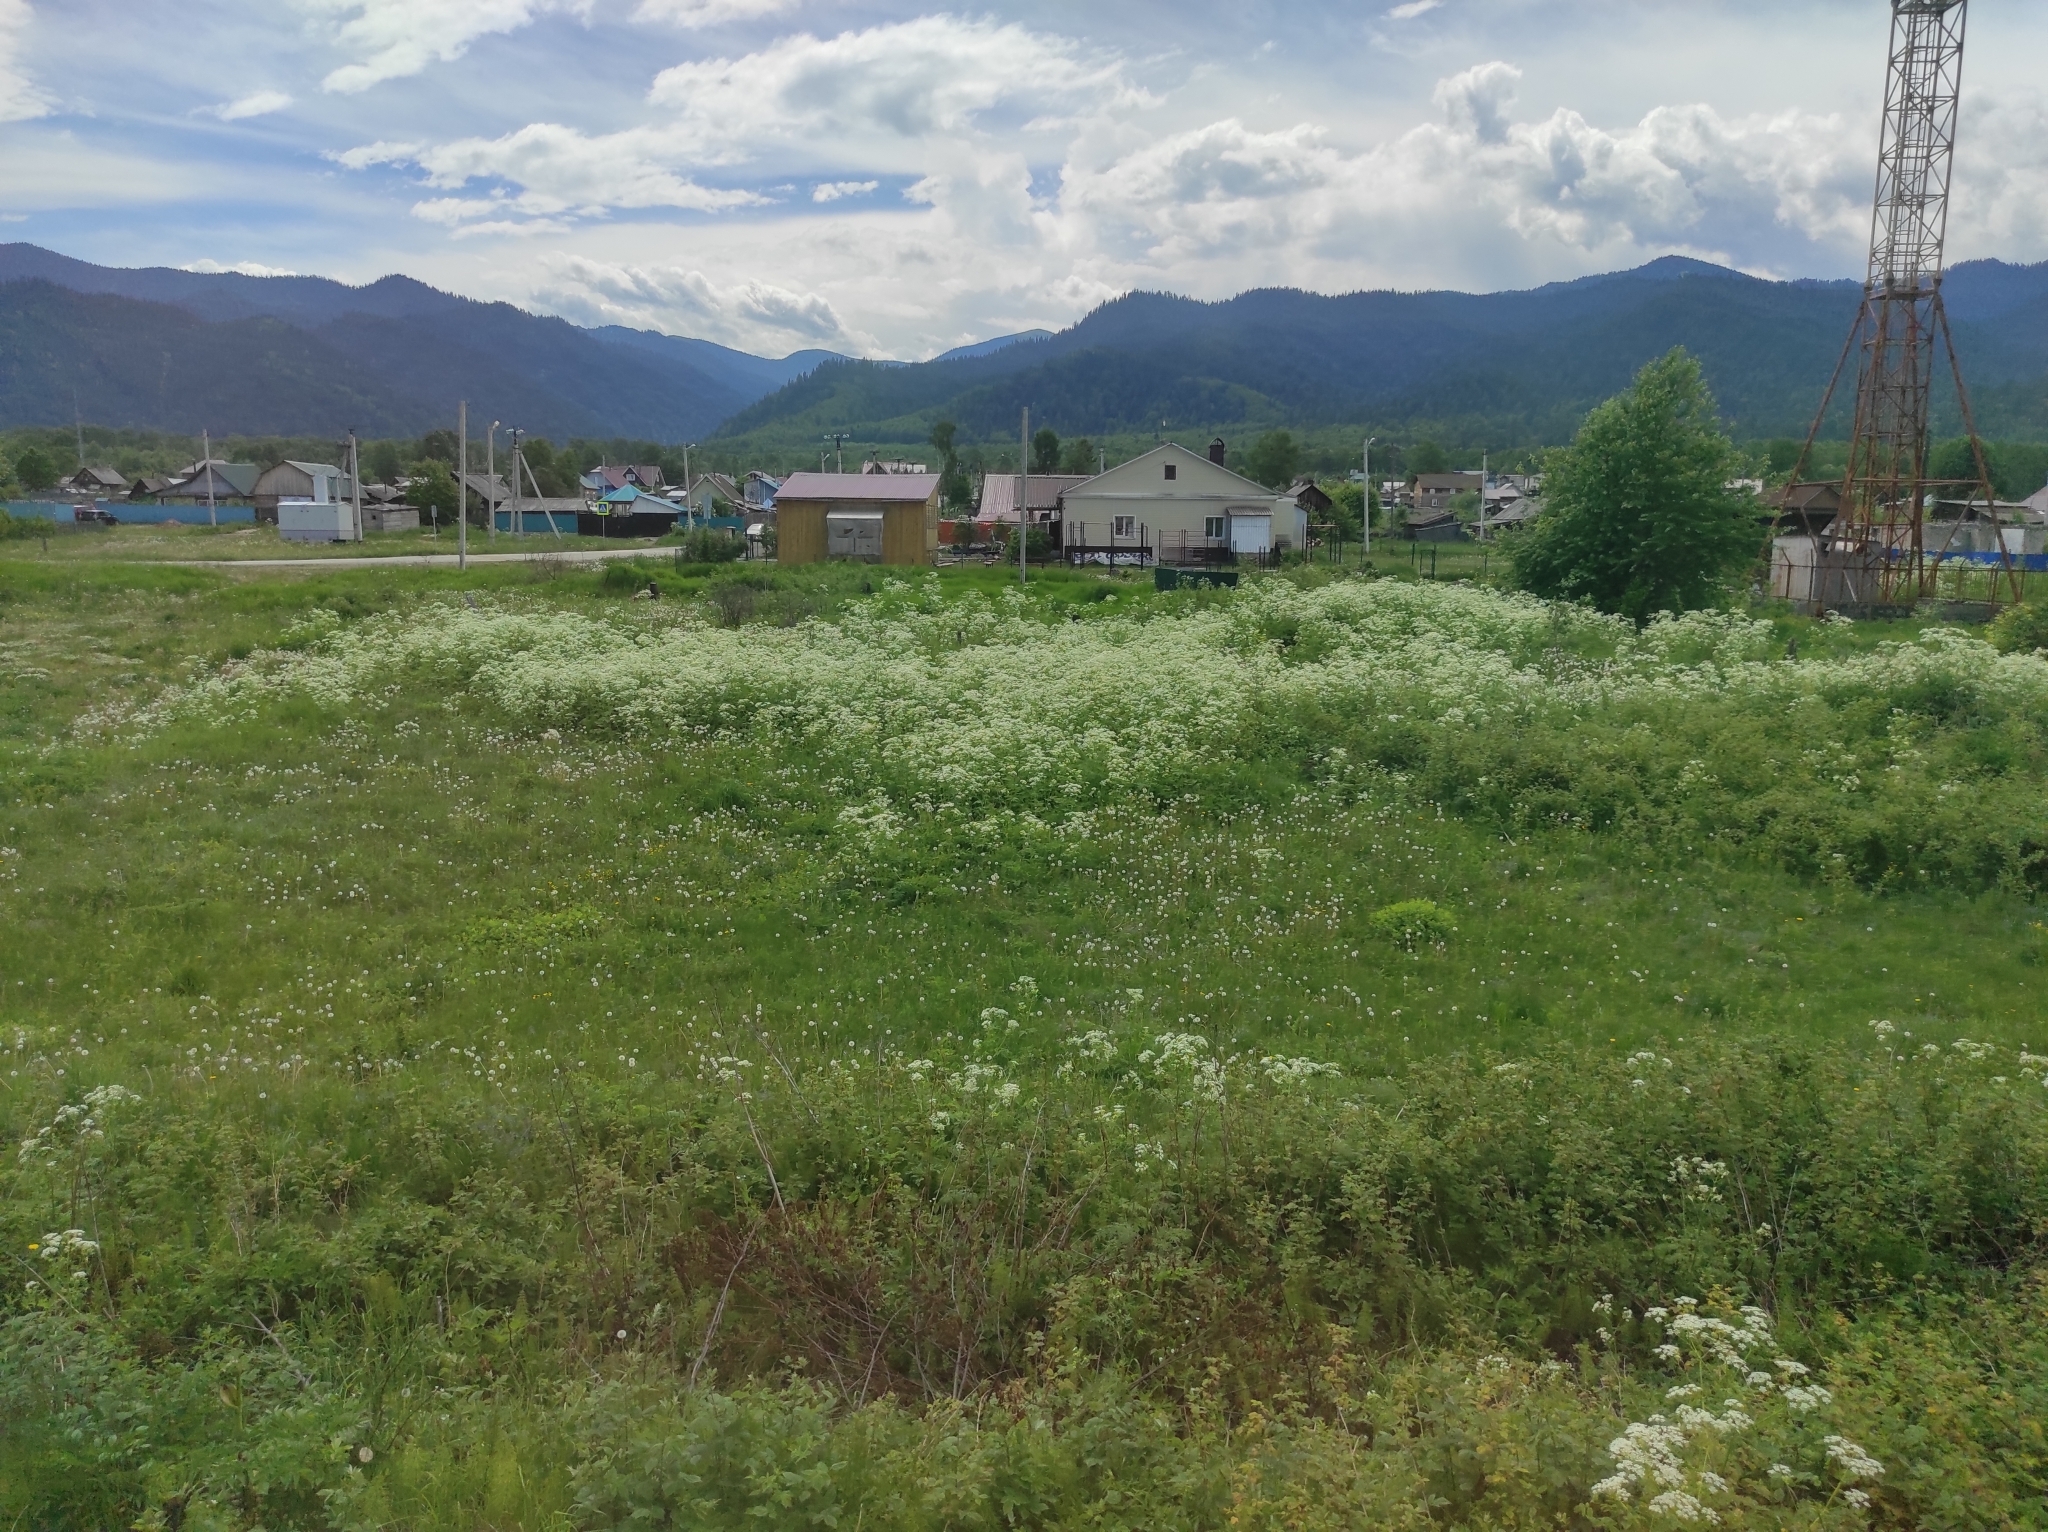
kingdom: Plantae
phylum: Tracheophyta
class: Magnoliopsida
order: Apiales
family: Apiaceae
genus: Anthriscus
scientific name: Anthriscus sylvestris
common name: Cow parsley
